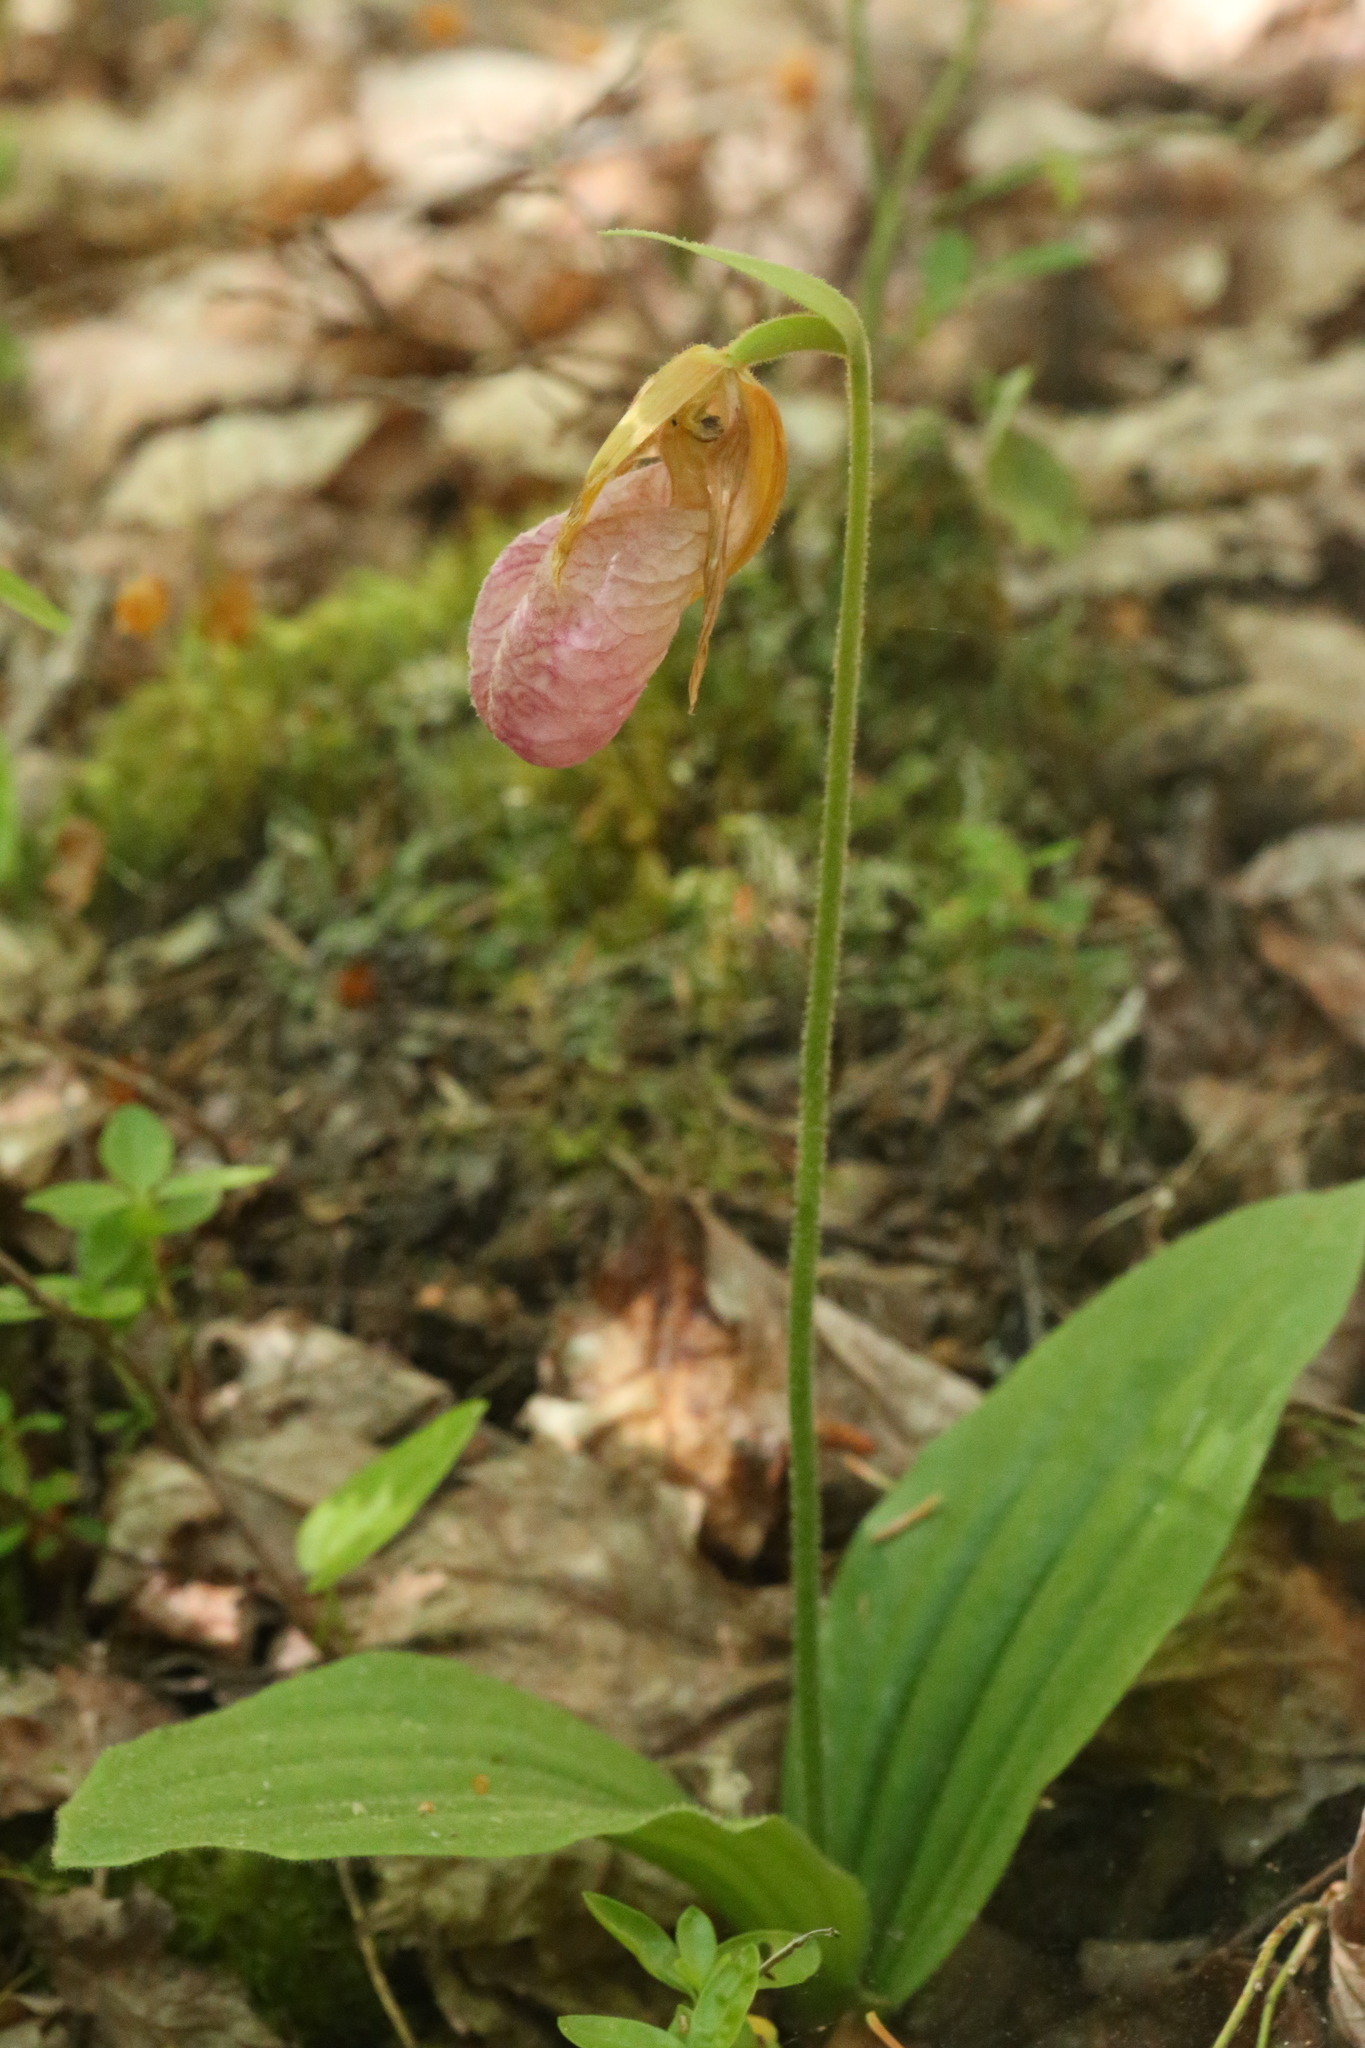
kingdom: Plantae
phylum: Tracheophyta
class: Liliopsida
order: Asparagales
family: Orchidaceae
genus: Cypripedium
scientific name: Cypripedium acaule
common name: Pink lady's-slipper
